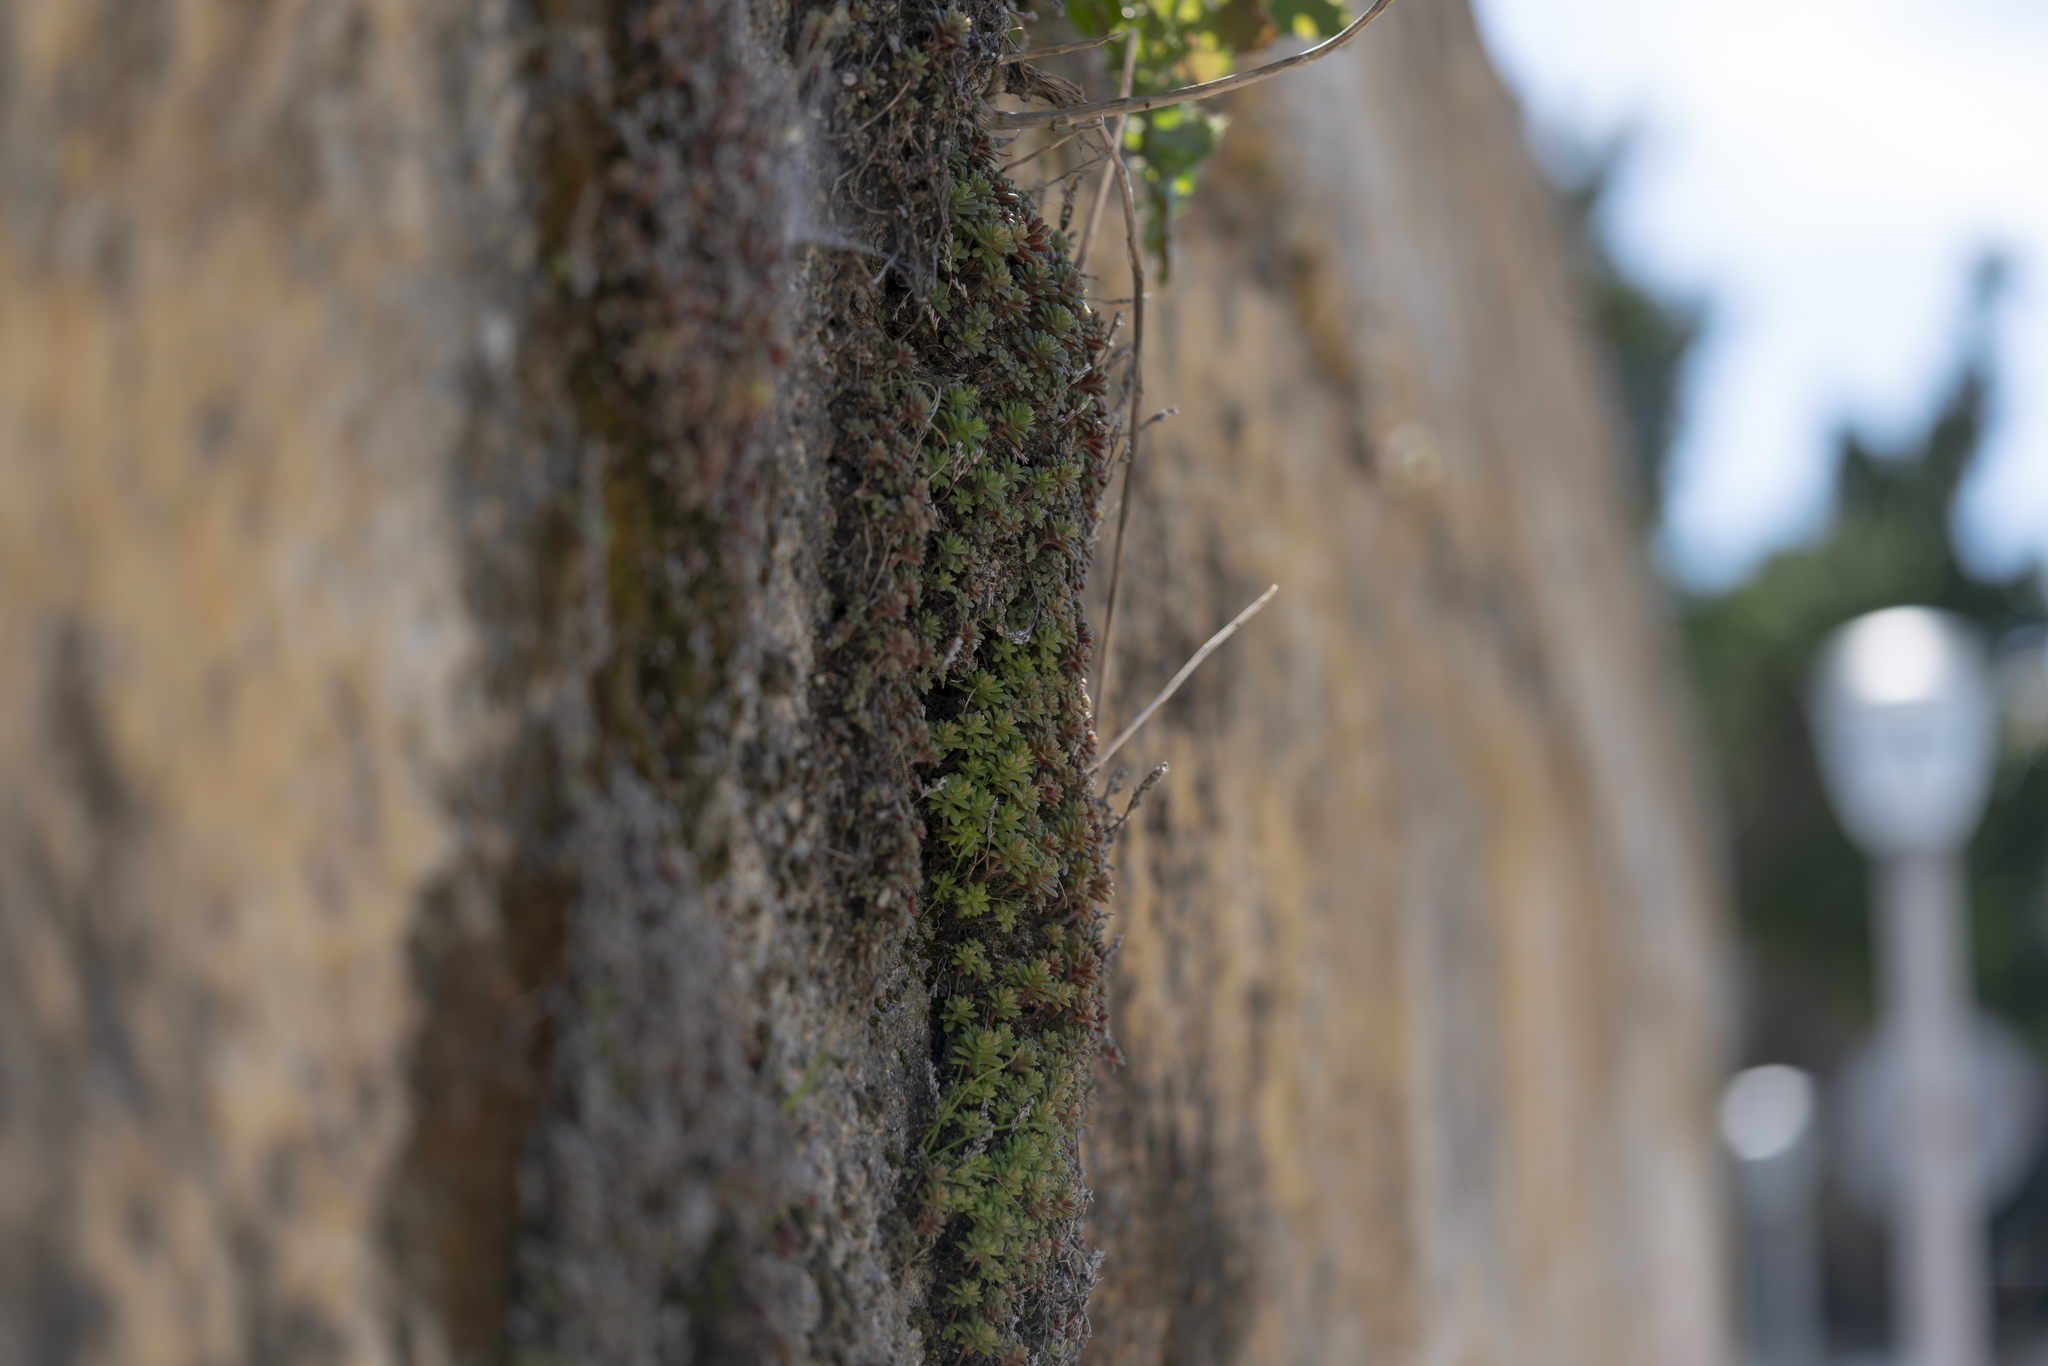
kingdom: Plantae
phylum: Tracheophyta
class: Magnoliopsida
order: Saxifragales
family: Crassulaceae
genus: Sedum
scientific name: Sedum litoreum
